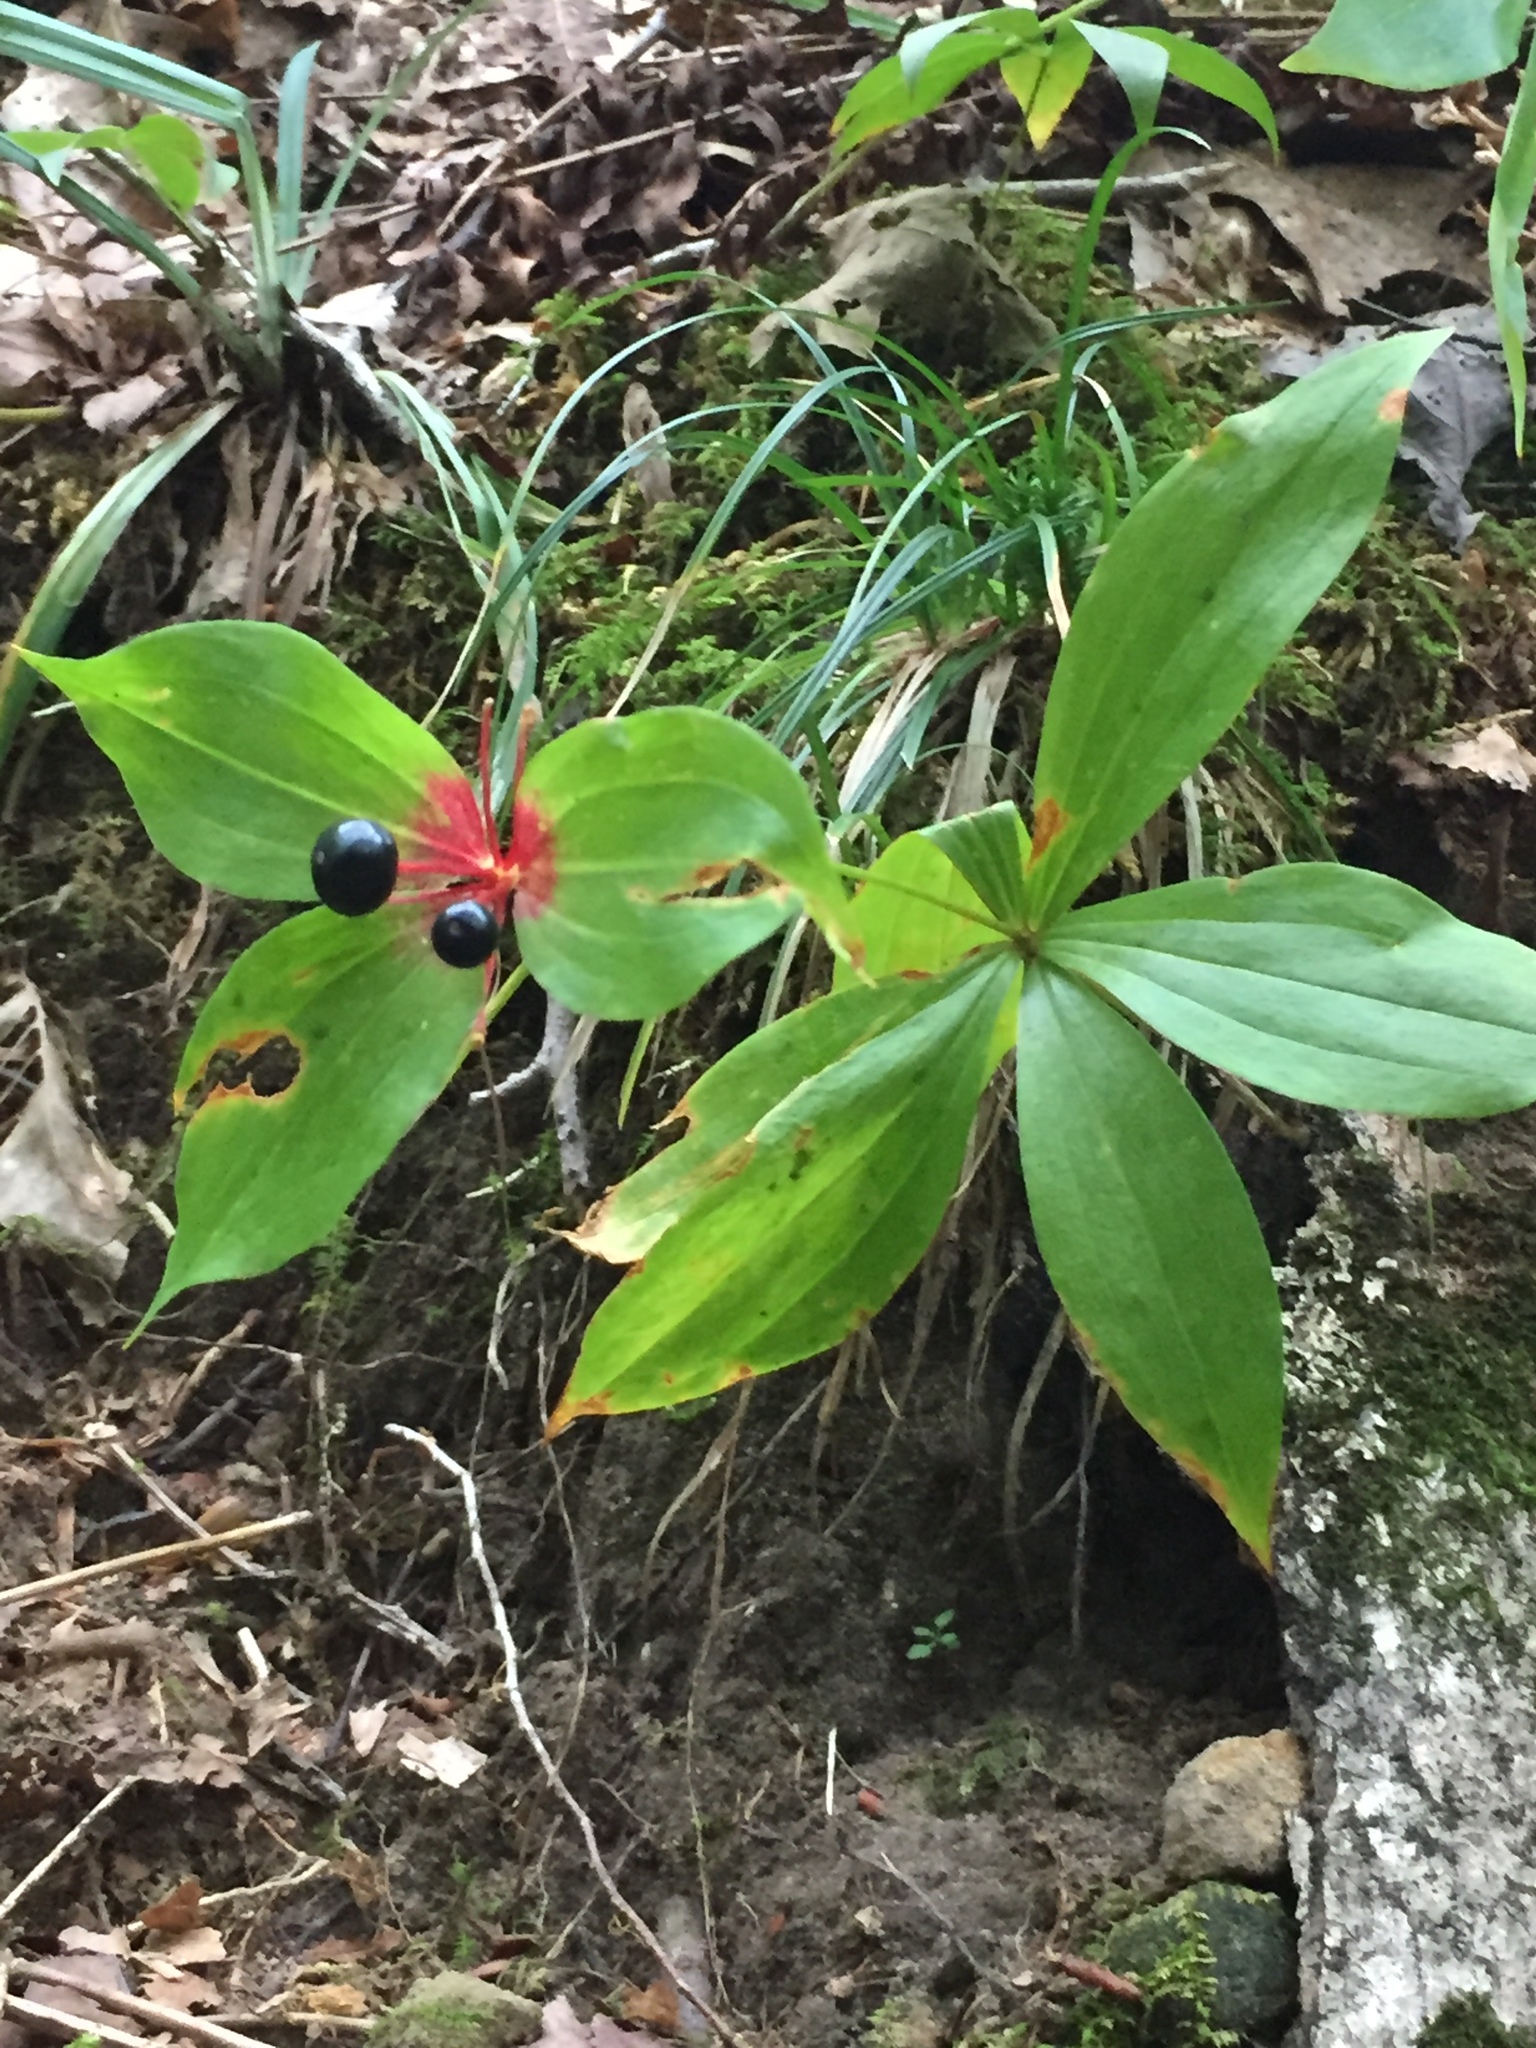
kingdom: Plantae
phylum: Tracheophyta
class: Liliopsida
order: Liliales
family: Liliaceae
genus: Medeola
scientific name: Medeola virginiana
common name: Indian cucumber-root
